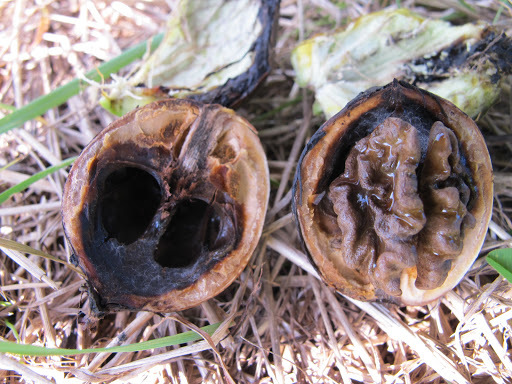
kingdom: Plantae
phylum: Tracheophyta
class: Magnoliopsida
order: Fagales
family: Juglandaceae
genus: Juglans
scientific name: Juglans regia
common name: Walnut
